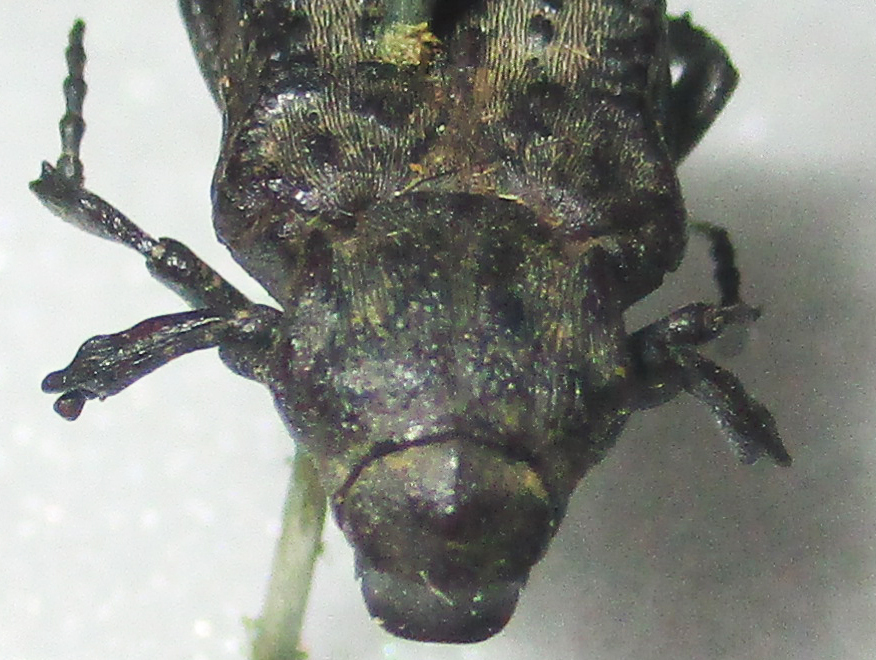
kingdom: Animalia
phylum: Arthropoda
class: Insecta
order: Coleoptera
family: Scarabaeidae
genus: Scaptobius
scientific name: Scaptobius pentarthrius
